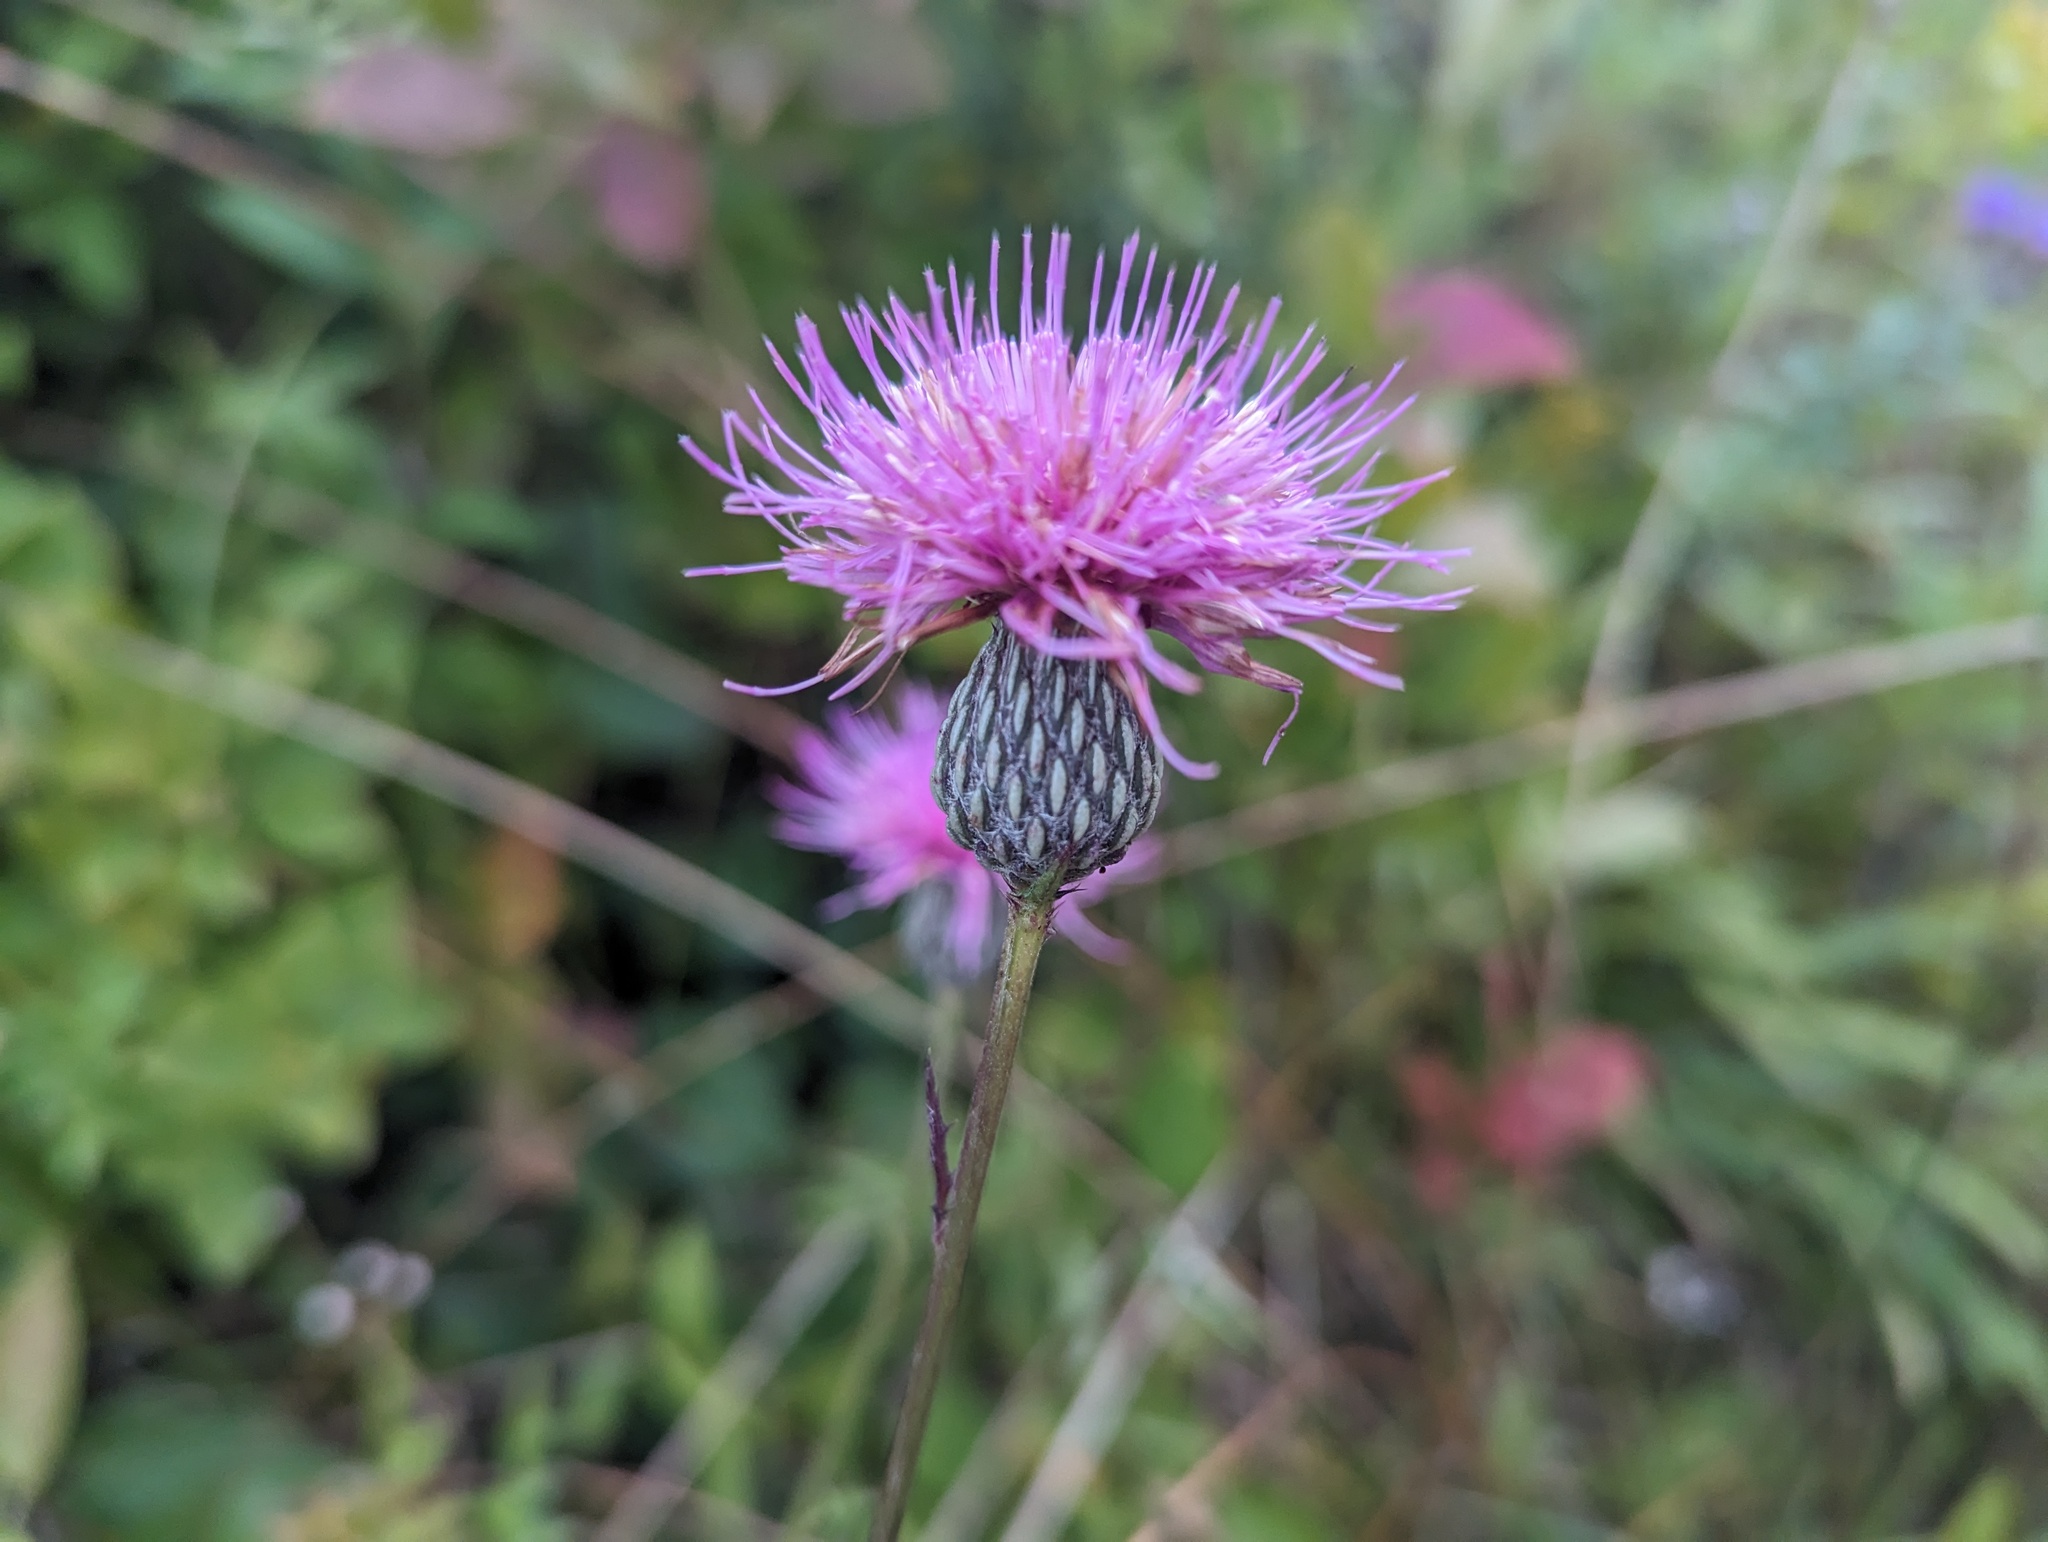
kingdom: Plantae
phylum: Tracheophyta
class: Magnoliopsida
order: Asterales
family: Asteraceae
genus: Cirsium
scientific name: Cirsium muticum
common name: Dunce-nettle
